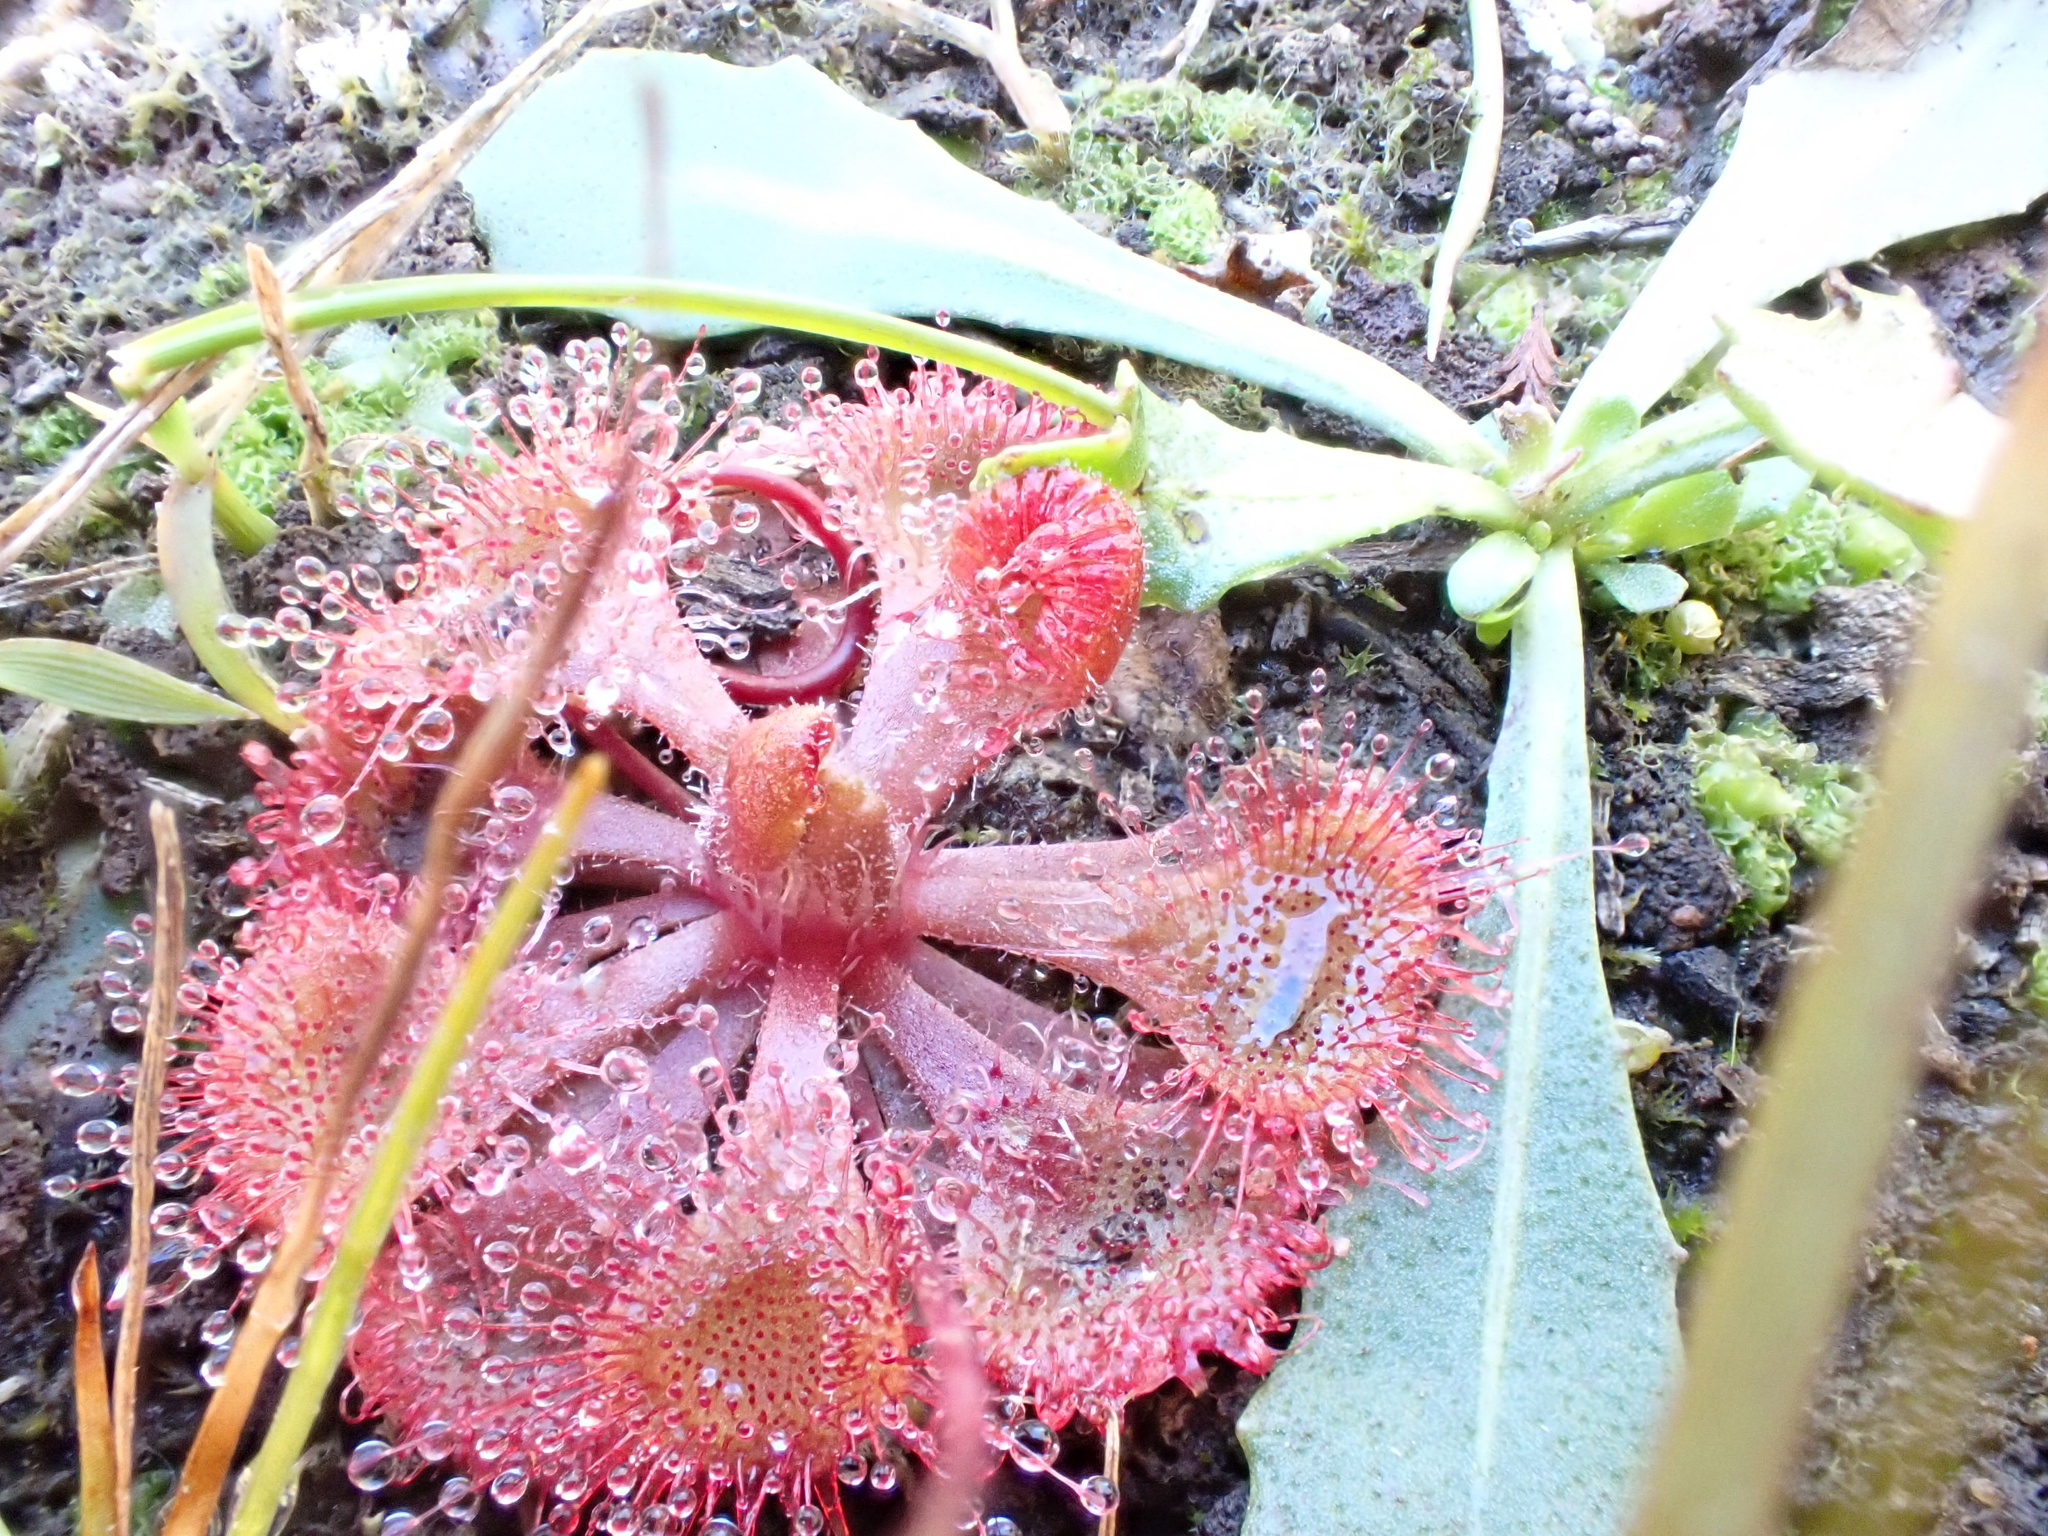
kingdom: Plantae
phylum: Tracheophyta
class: Magnoliopsida
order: Caryophyllales
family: Droseraceae
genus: Drosera
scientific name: Drosera spatulata
